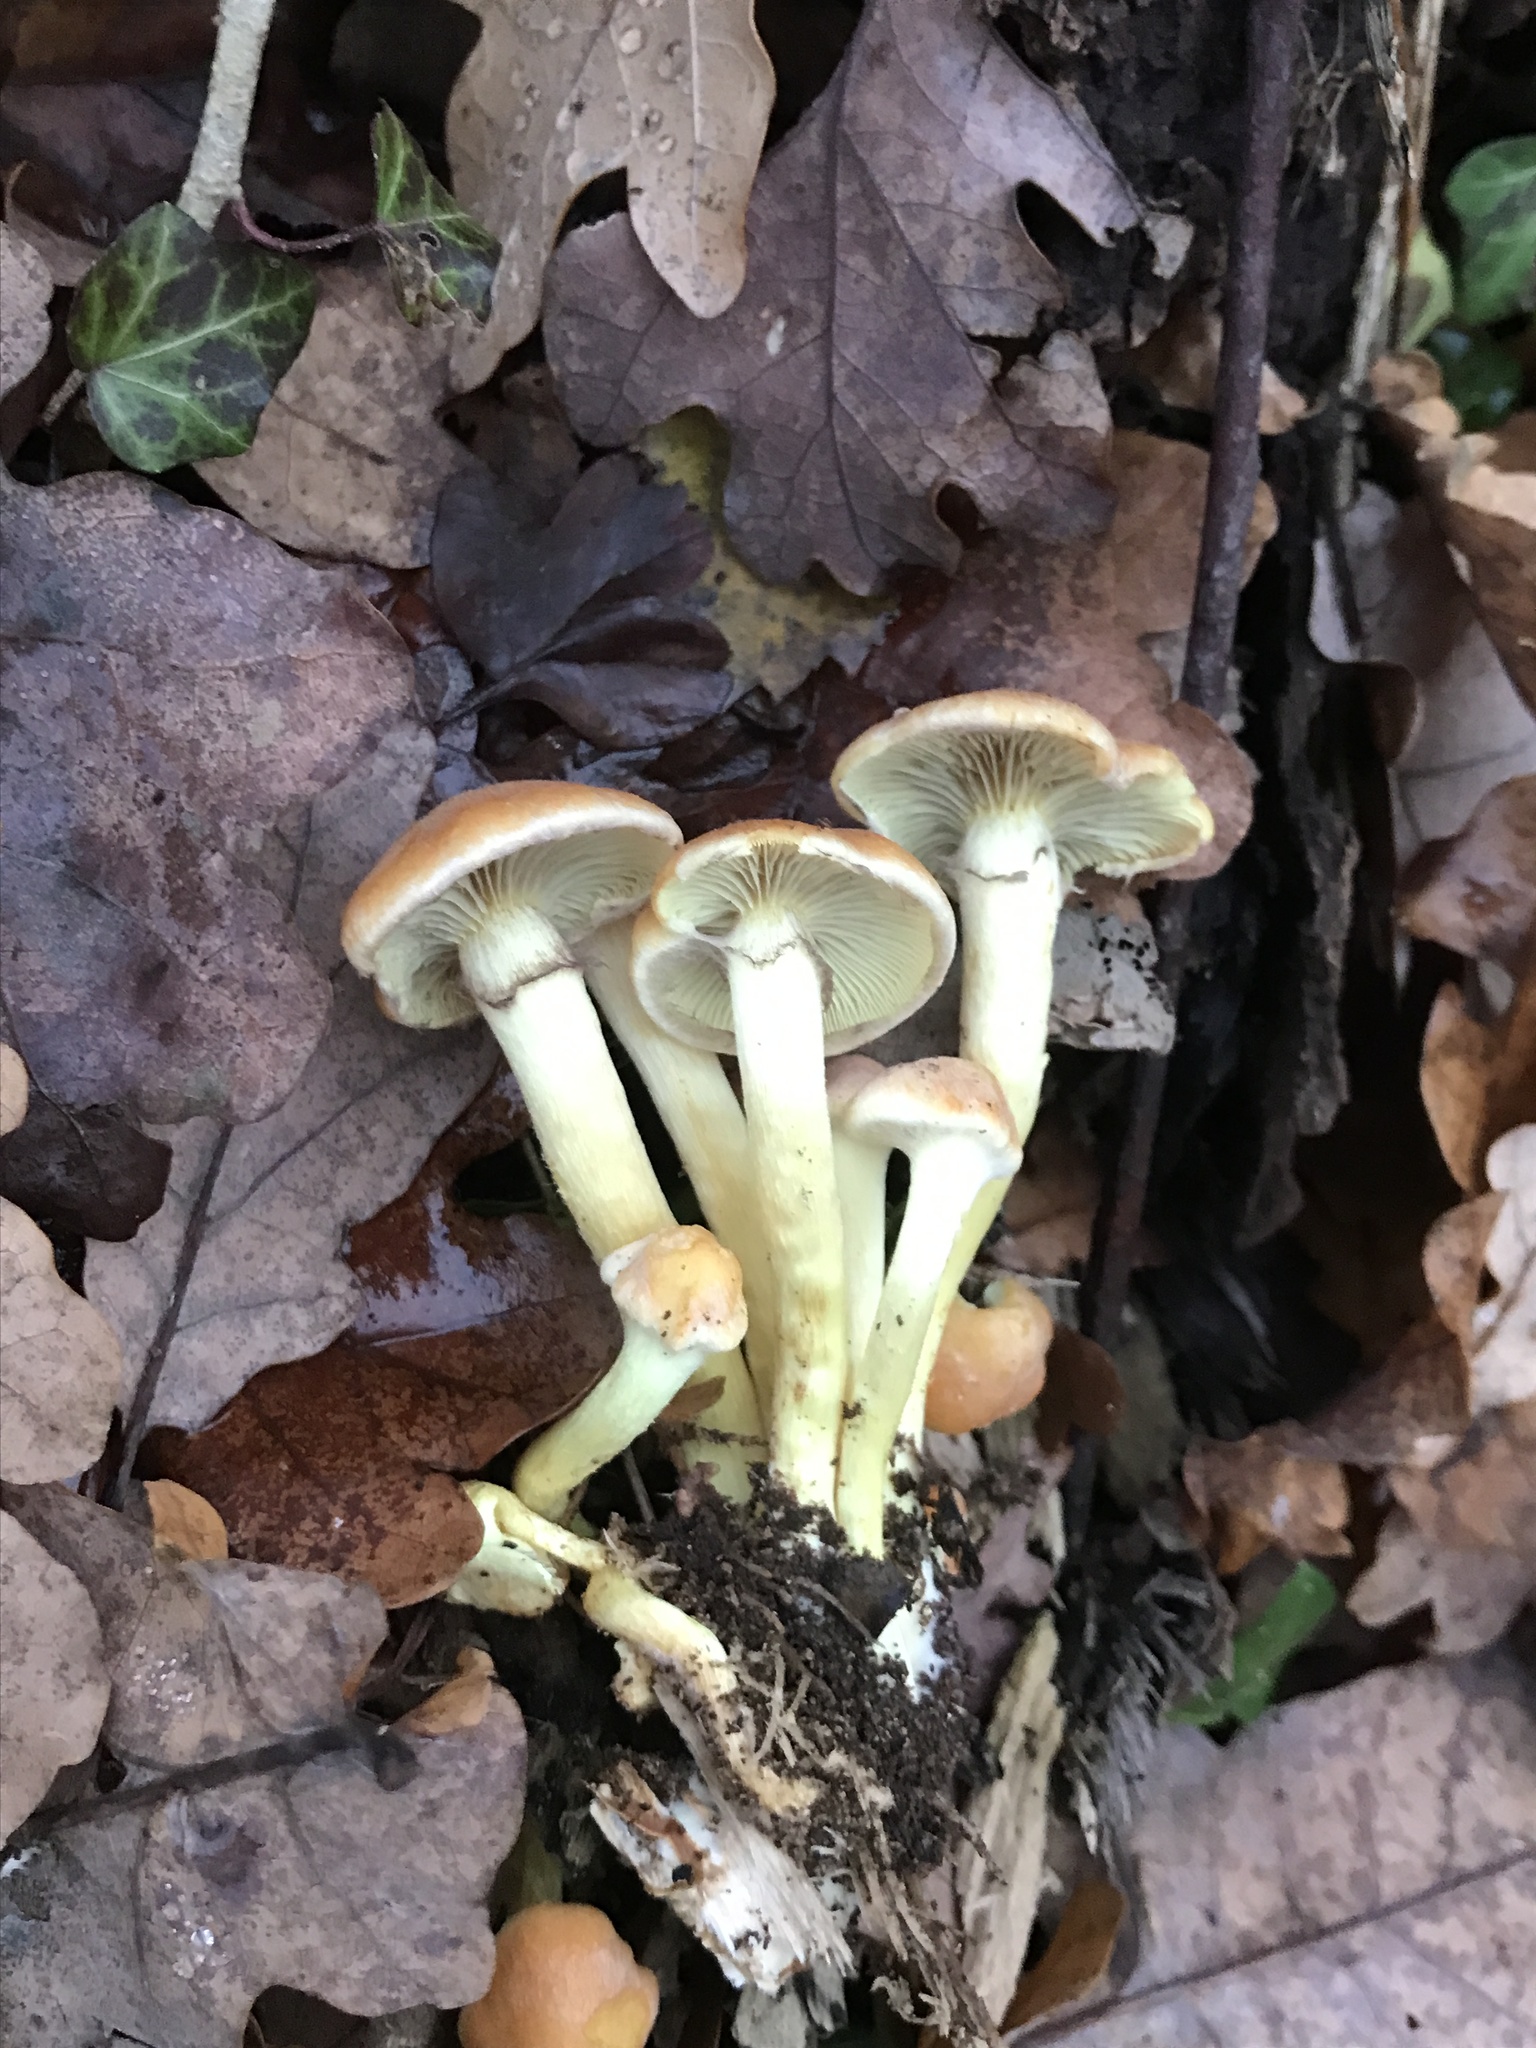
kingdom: Fungi
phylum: Basidiomycota
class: Agaricomycetes
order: Agaricales
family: Strophariaceae
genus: Hypholoma
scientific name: Hypholoma fasciculare
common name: Sulphur tuft
